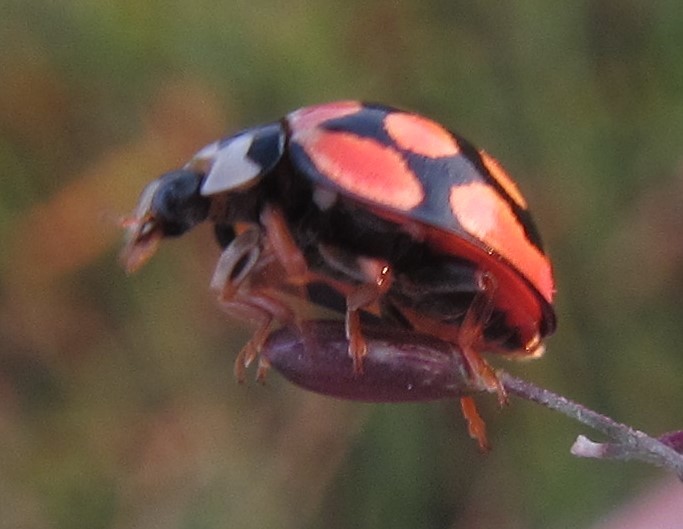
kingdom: Animalia
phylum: Arthropoda
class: Insecta
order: Coleoptera
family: Coccinellidae
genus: Cheilomenes
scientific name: Cheilomenes lunata
